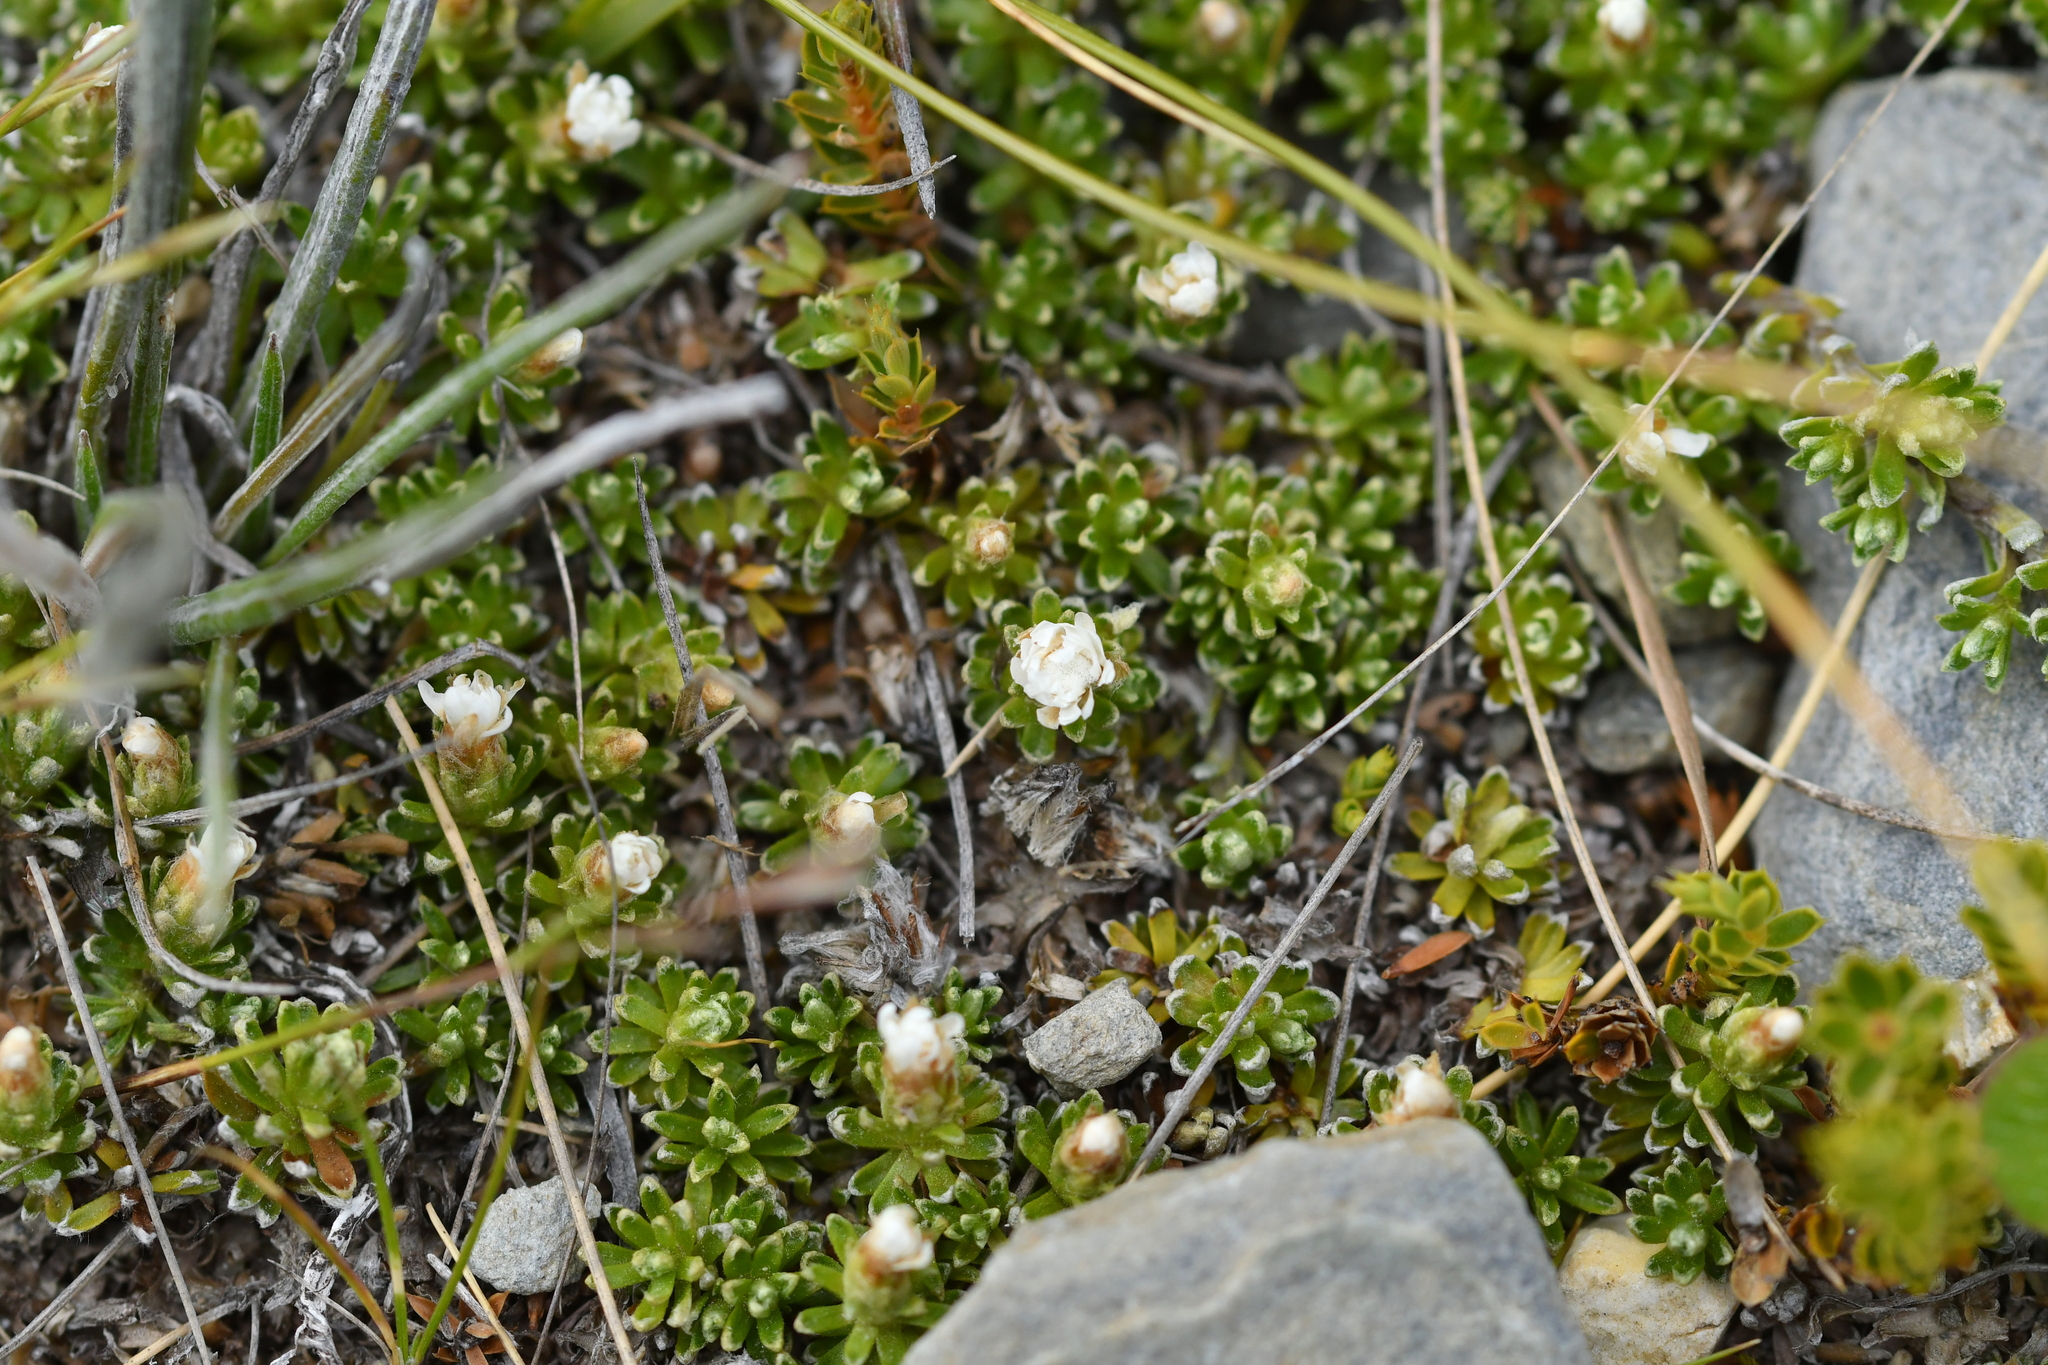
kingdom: Plantae
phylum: Tracheophyta
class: Magnoliopsida
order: Asterales
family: Asteraceae
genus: Raoulia
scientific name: Raoulia subsericea
